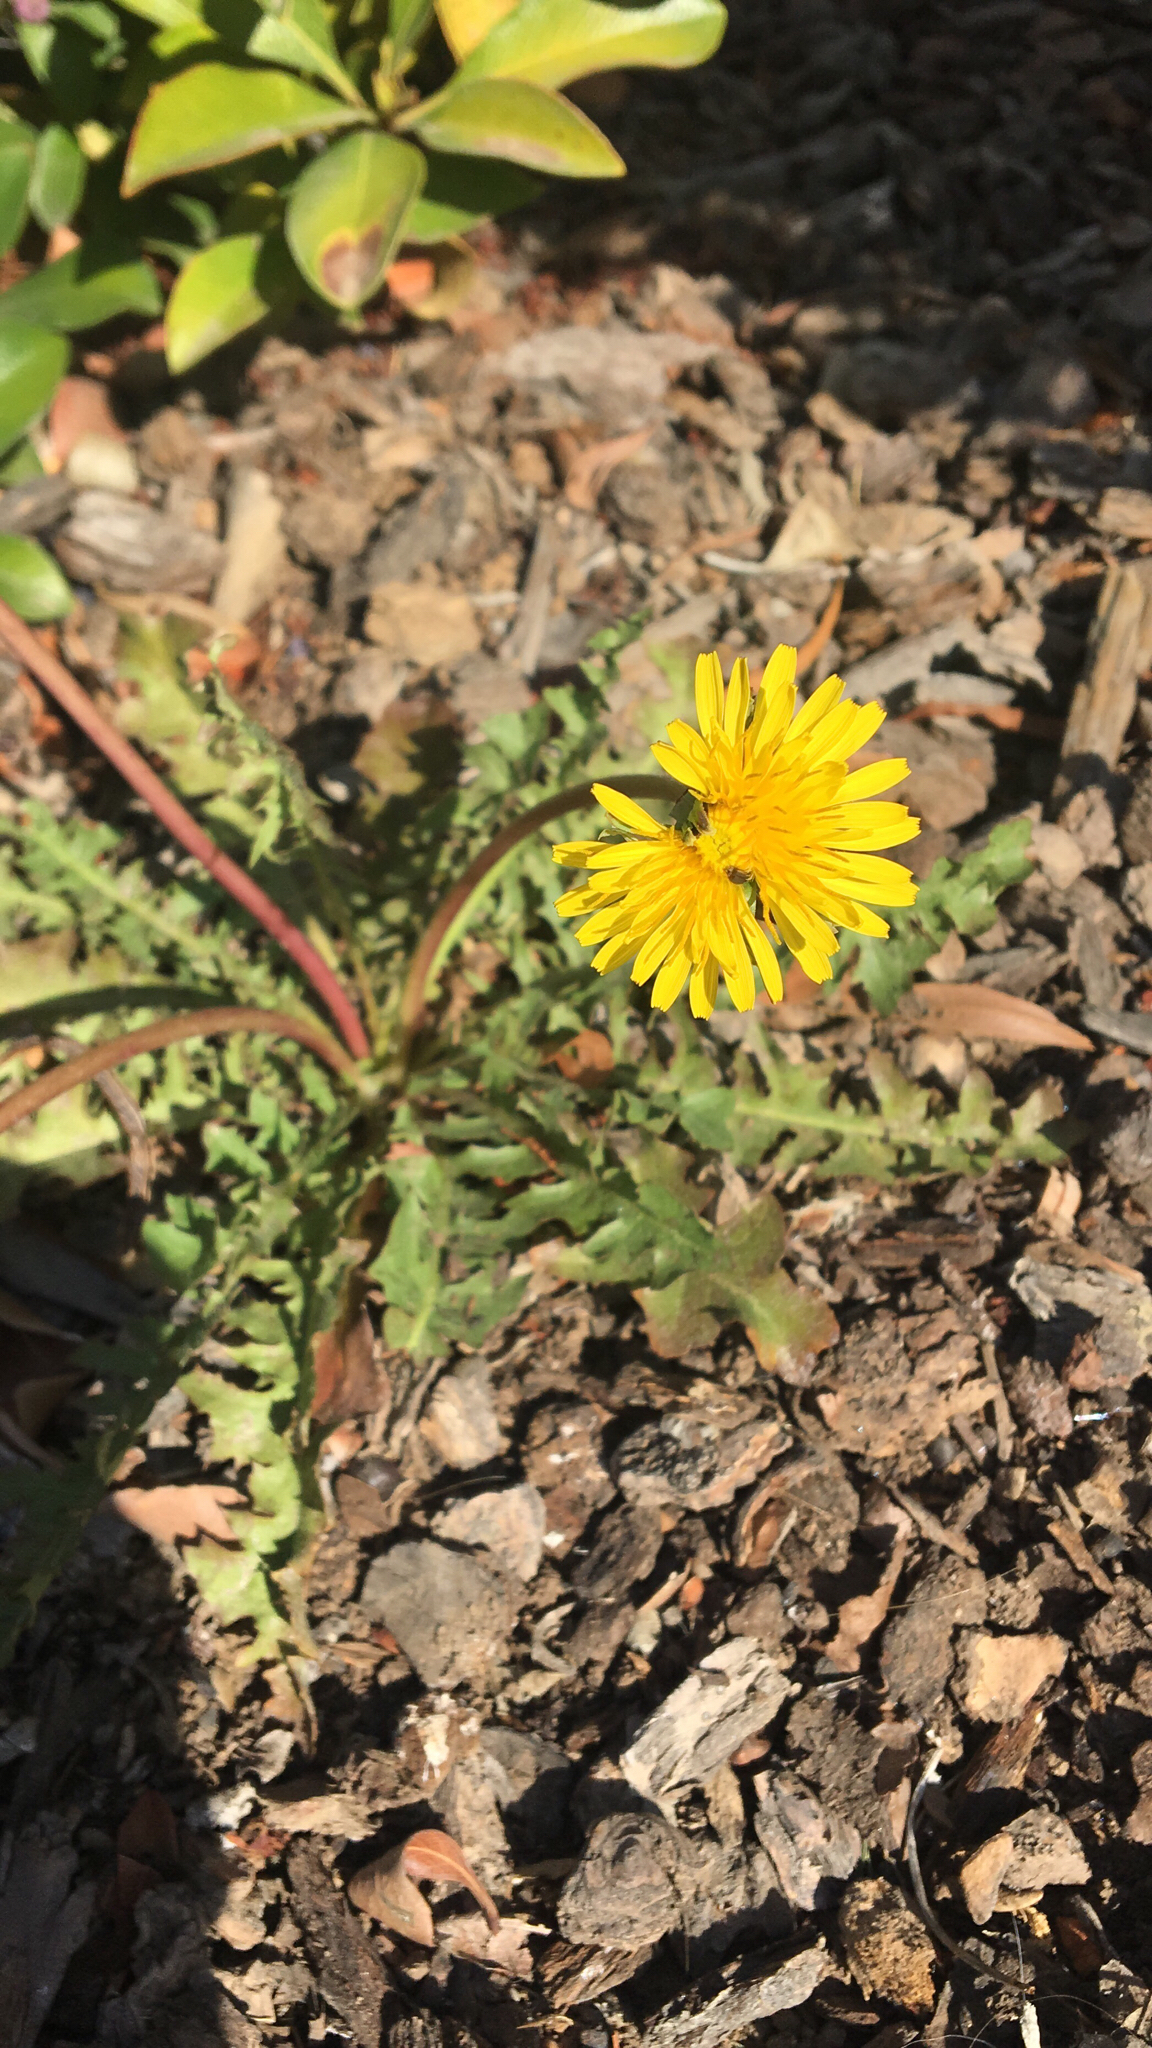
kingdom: Plantae
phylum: Tracheophyta
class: Magnoliopsida
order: Asterales
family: Asteraceae
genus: Taraxacum
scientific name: Taraxacum officinale
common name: Common dandelion
